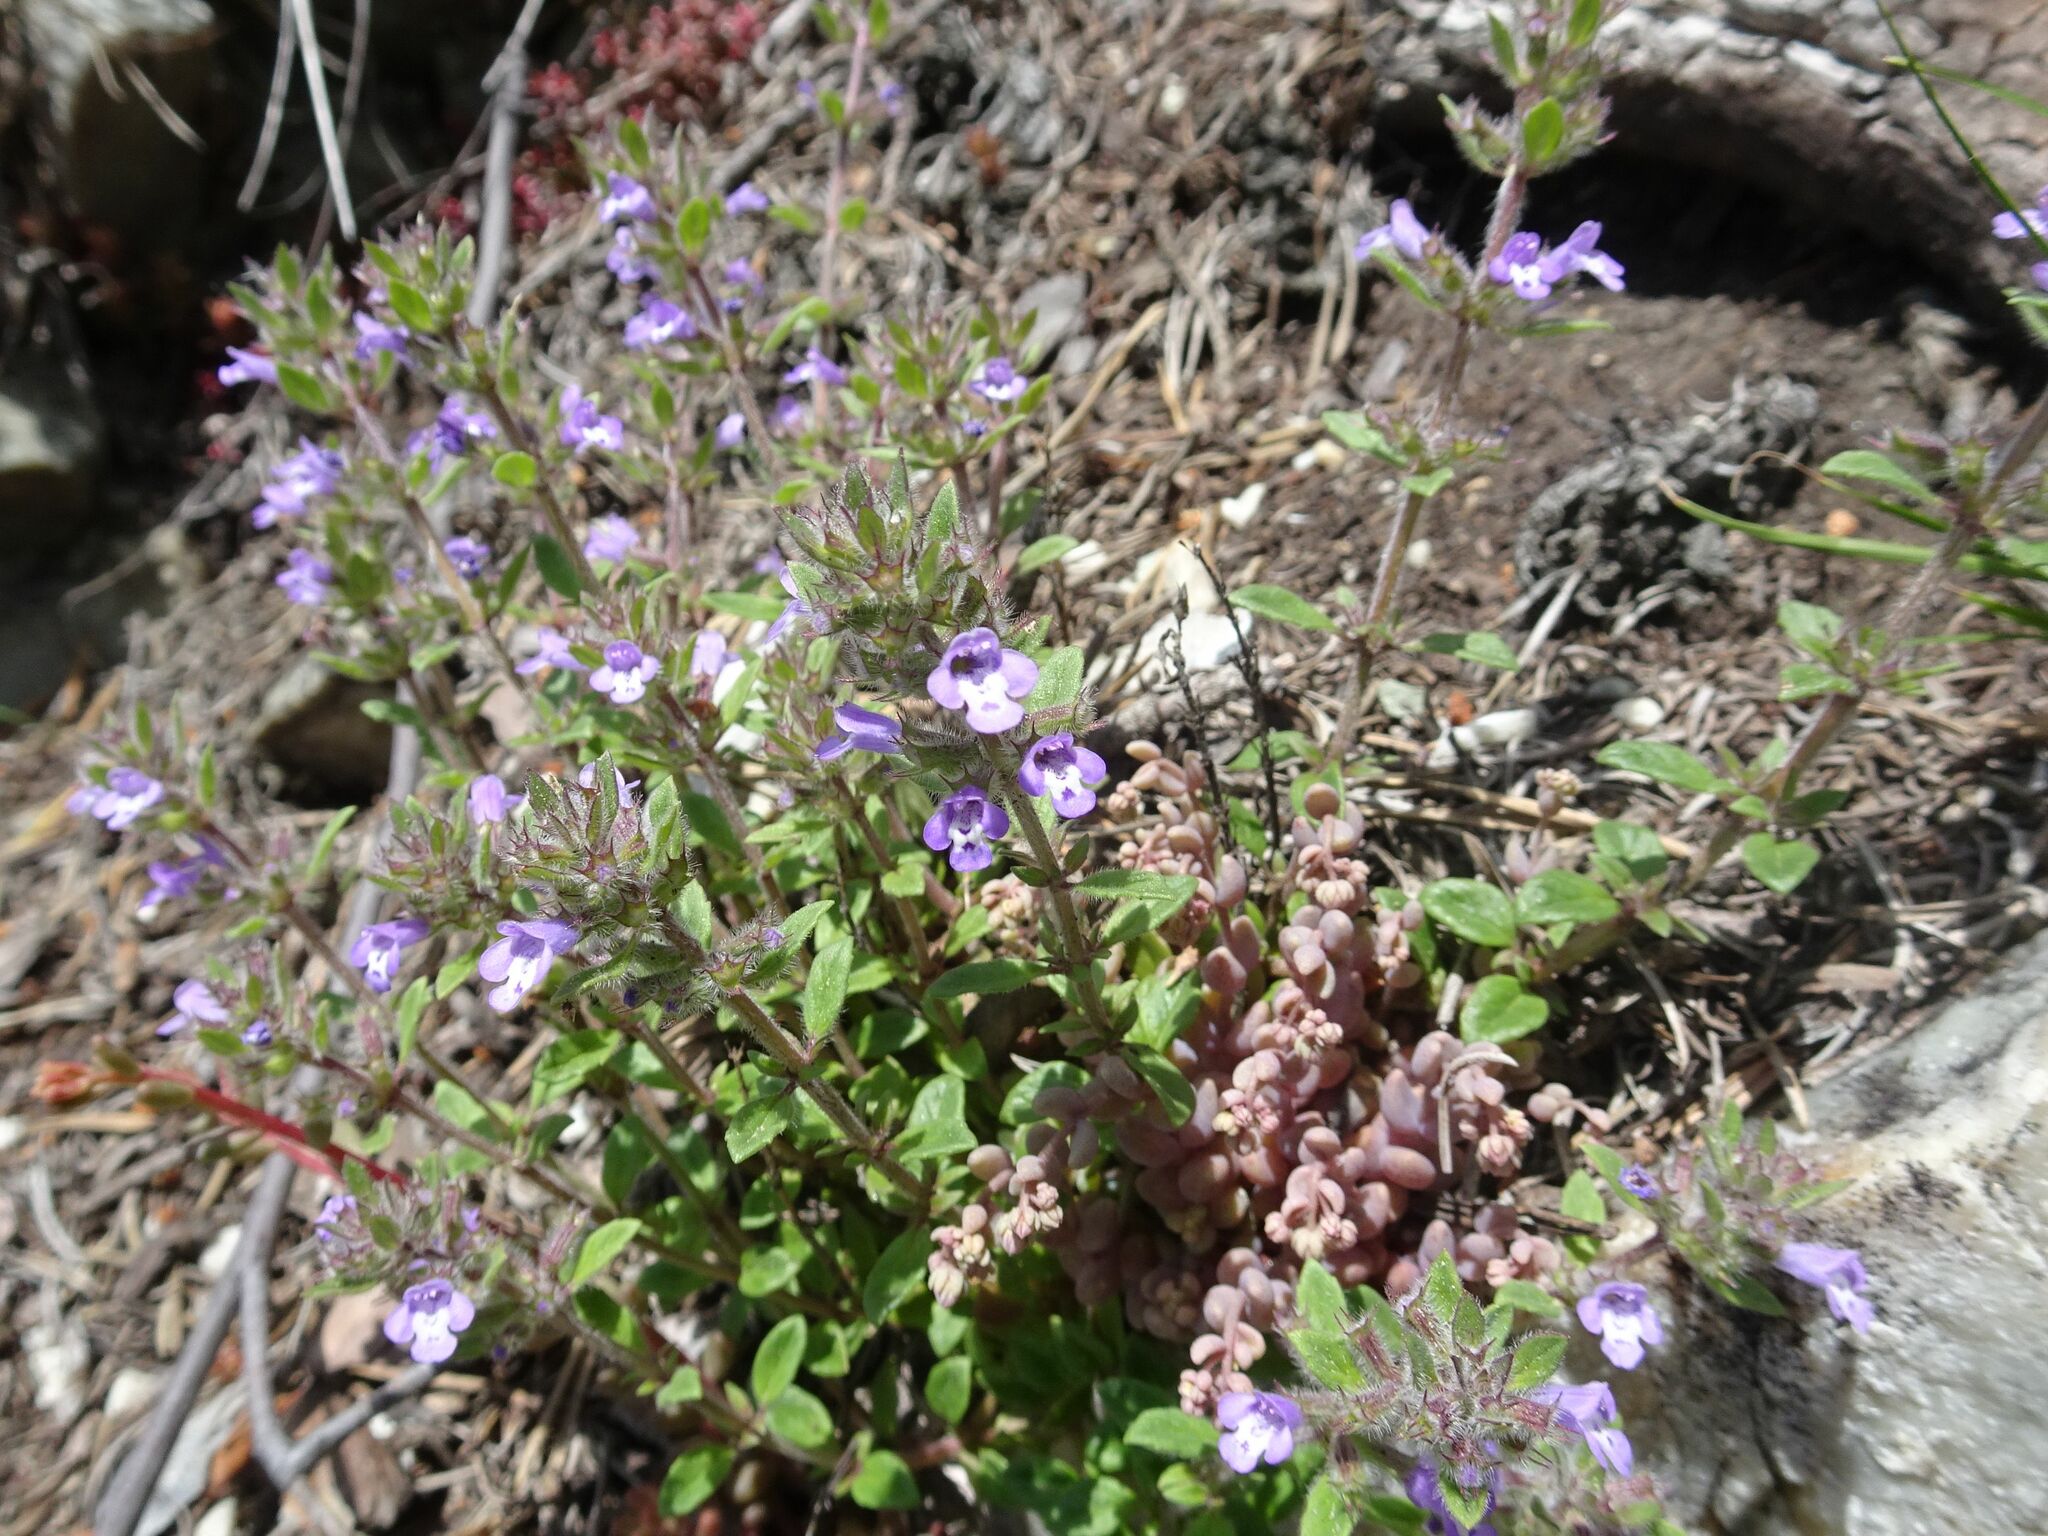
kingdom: Plantae
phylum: Tracheophyta
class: Magnoliopsida
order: Lamiales
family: Lamiaceae
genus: Clinopodium
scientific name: Clinopodium alpinum
